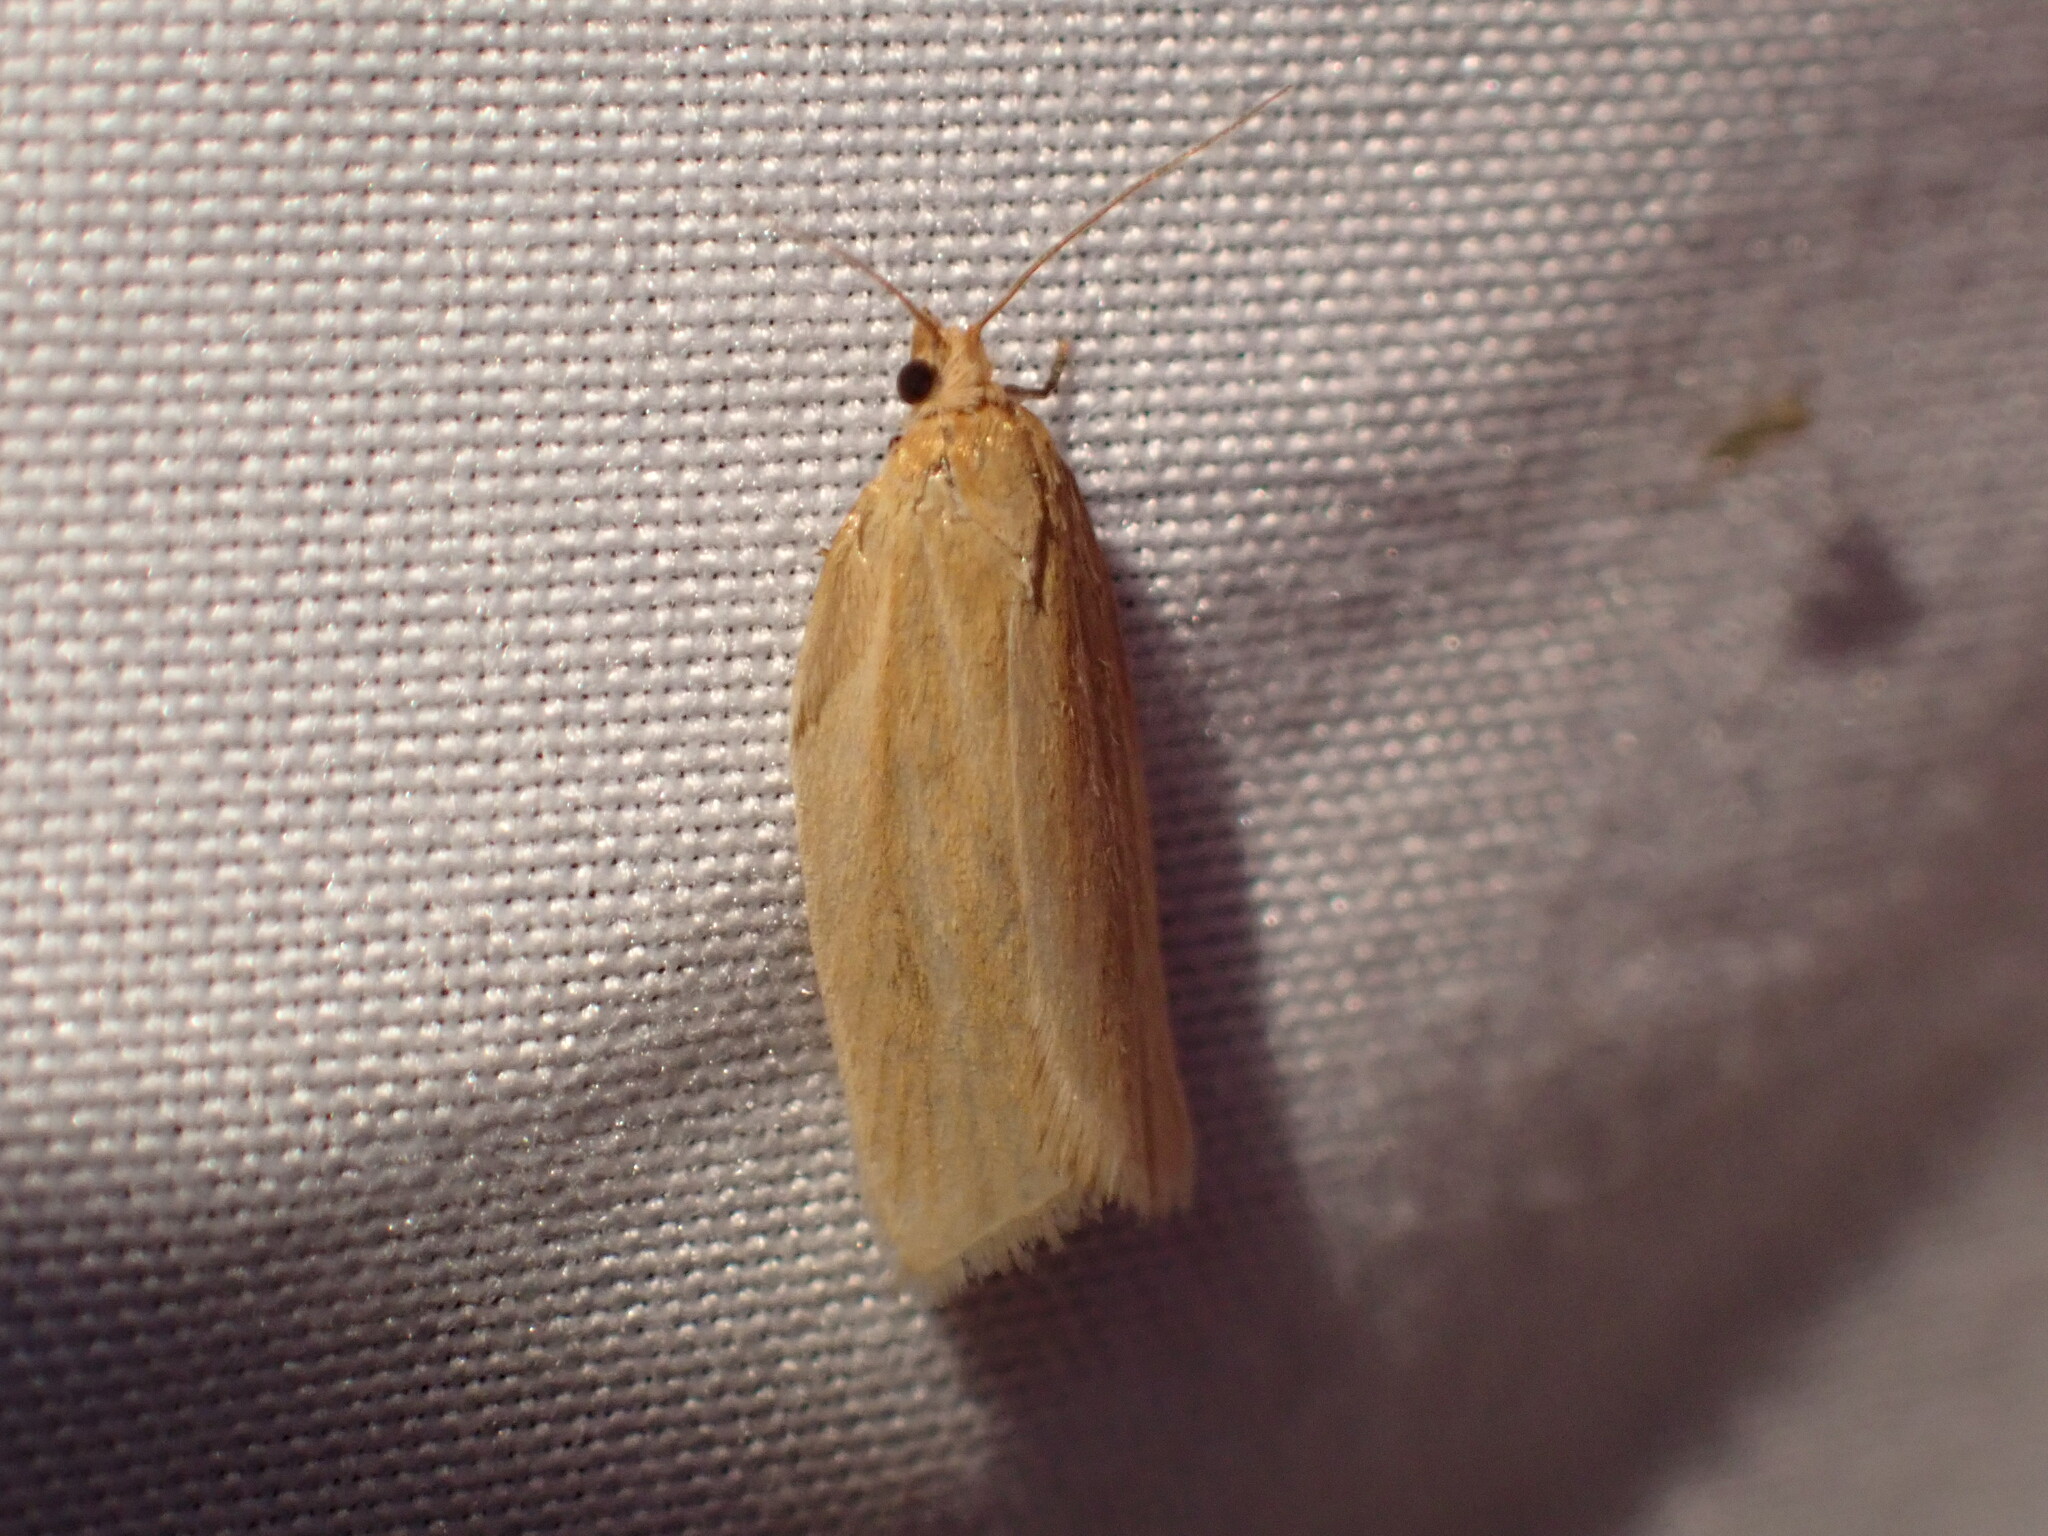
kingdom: Animalia
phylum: Arthropoda
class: Insecta
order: Lepidoptera
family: Tortricidae
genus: Clepsis
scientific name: Clepsis clemensiana
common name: Clemens' clepsis moth
